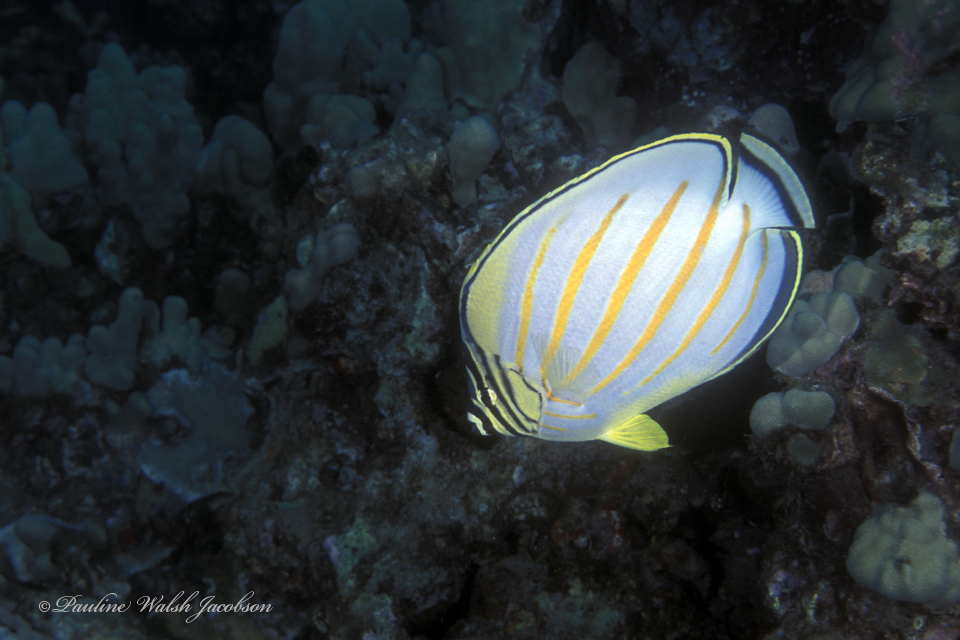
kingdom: Animalia
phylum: Chordata
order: Perciformes
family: Chaetodontidae
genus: Chaetodon
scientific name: Chaetodon ornatissimus
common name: Ornate butterflyfish
